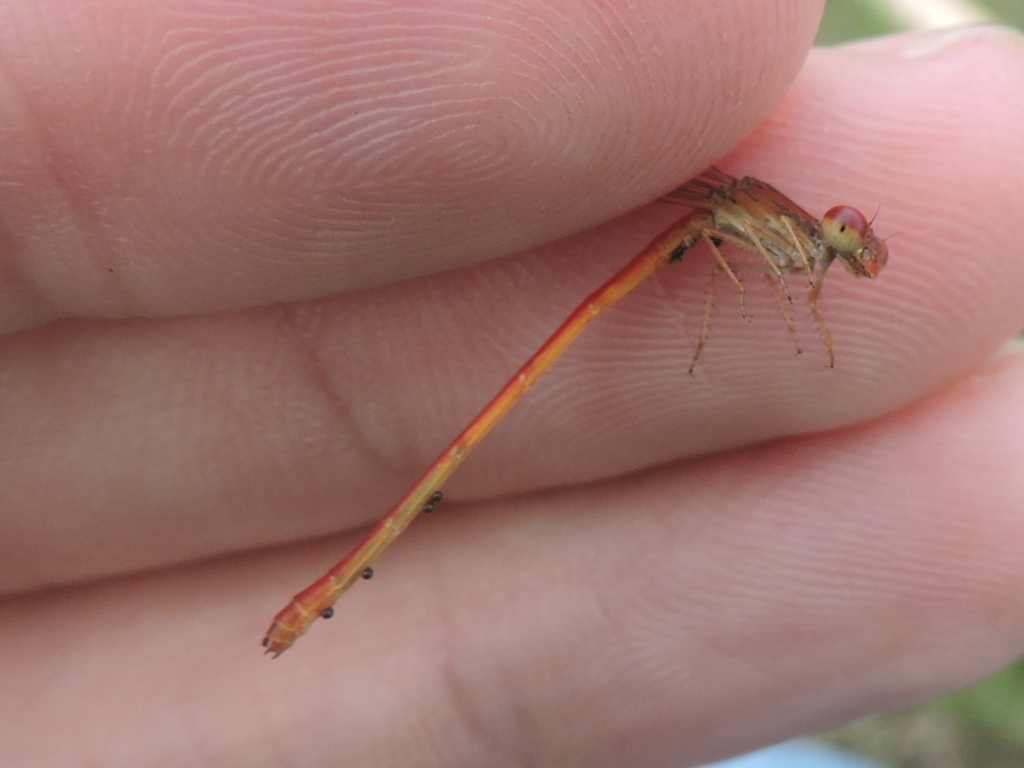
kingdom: Animalia
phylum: Arthropoda
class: Insecta
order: Odonata
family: Coenagrionidae
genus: Telebasis
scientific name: Telebasis salva
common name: Desert firetail
